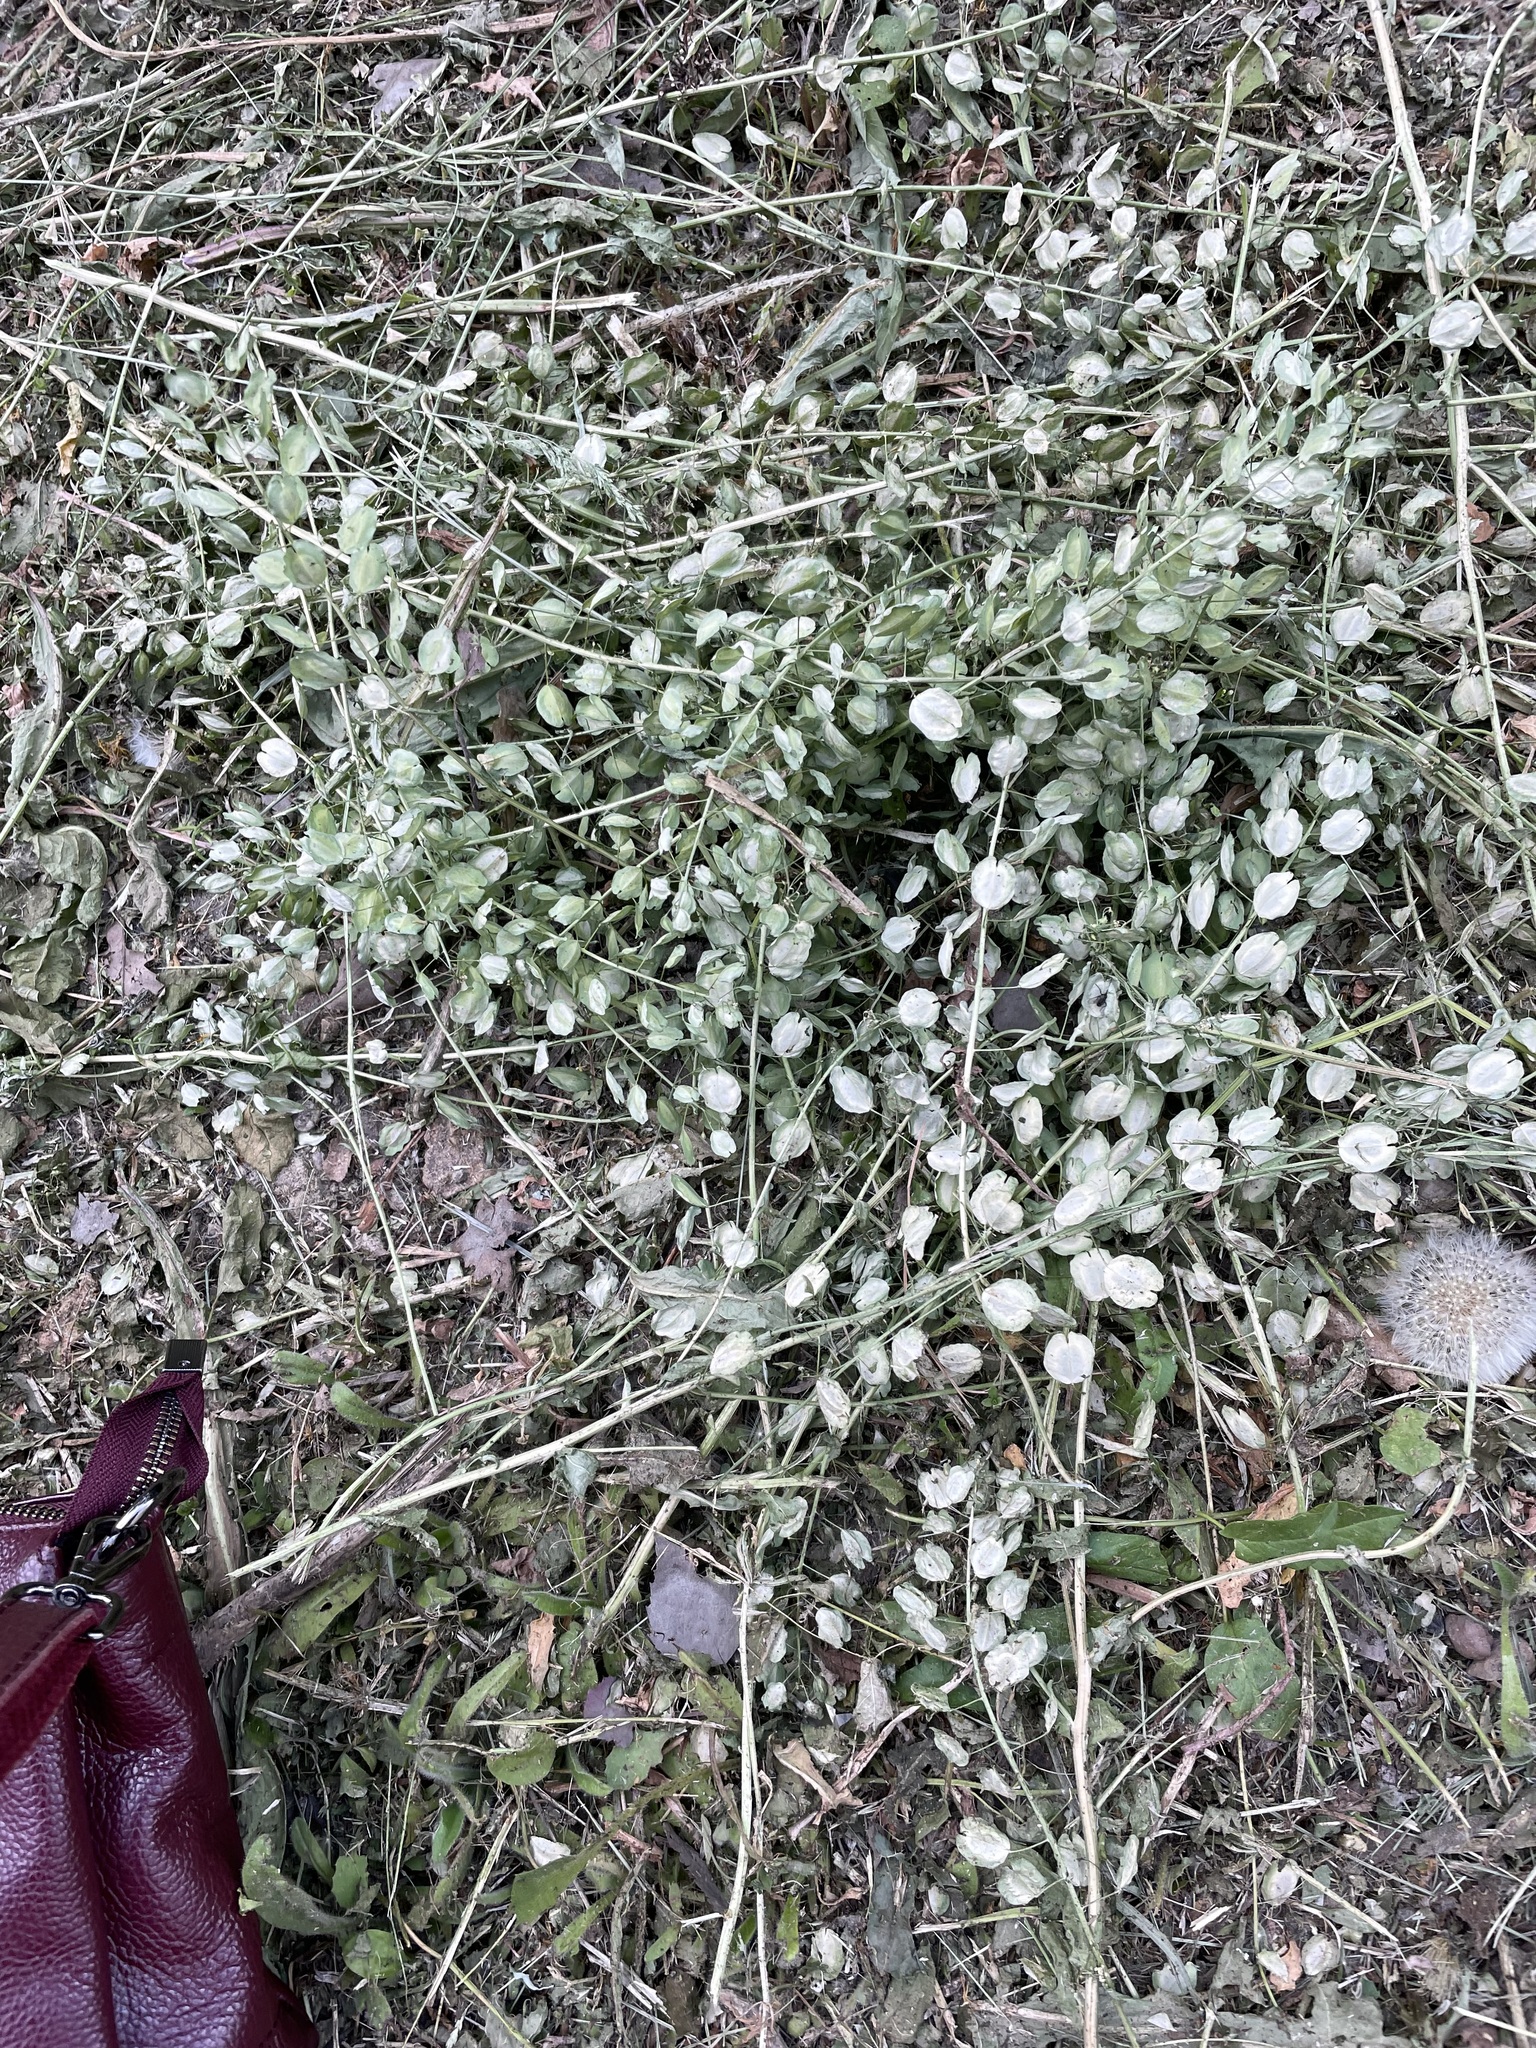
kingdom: Plantae
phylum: Tracheophyta
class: Magnoliopsida
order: Brassicales
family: Brassicaceae
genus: Thlaspi
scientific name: Thlaspi arvense
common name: Field pennycress
